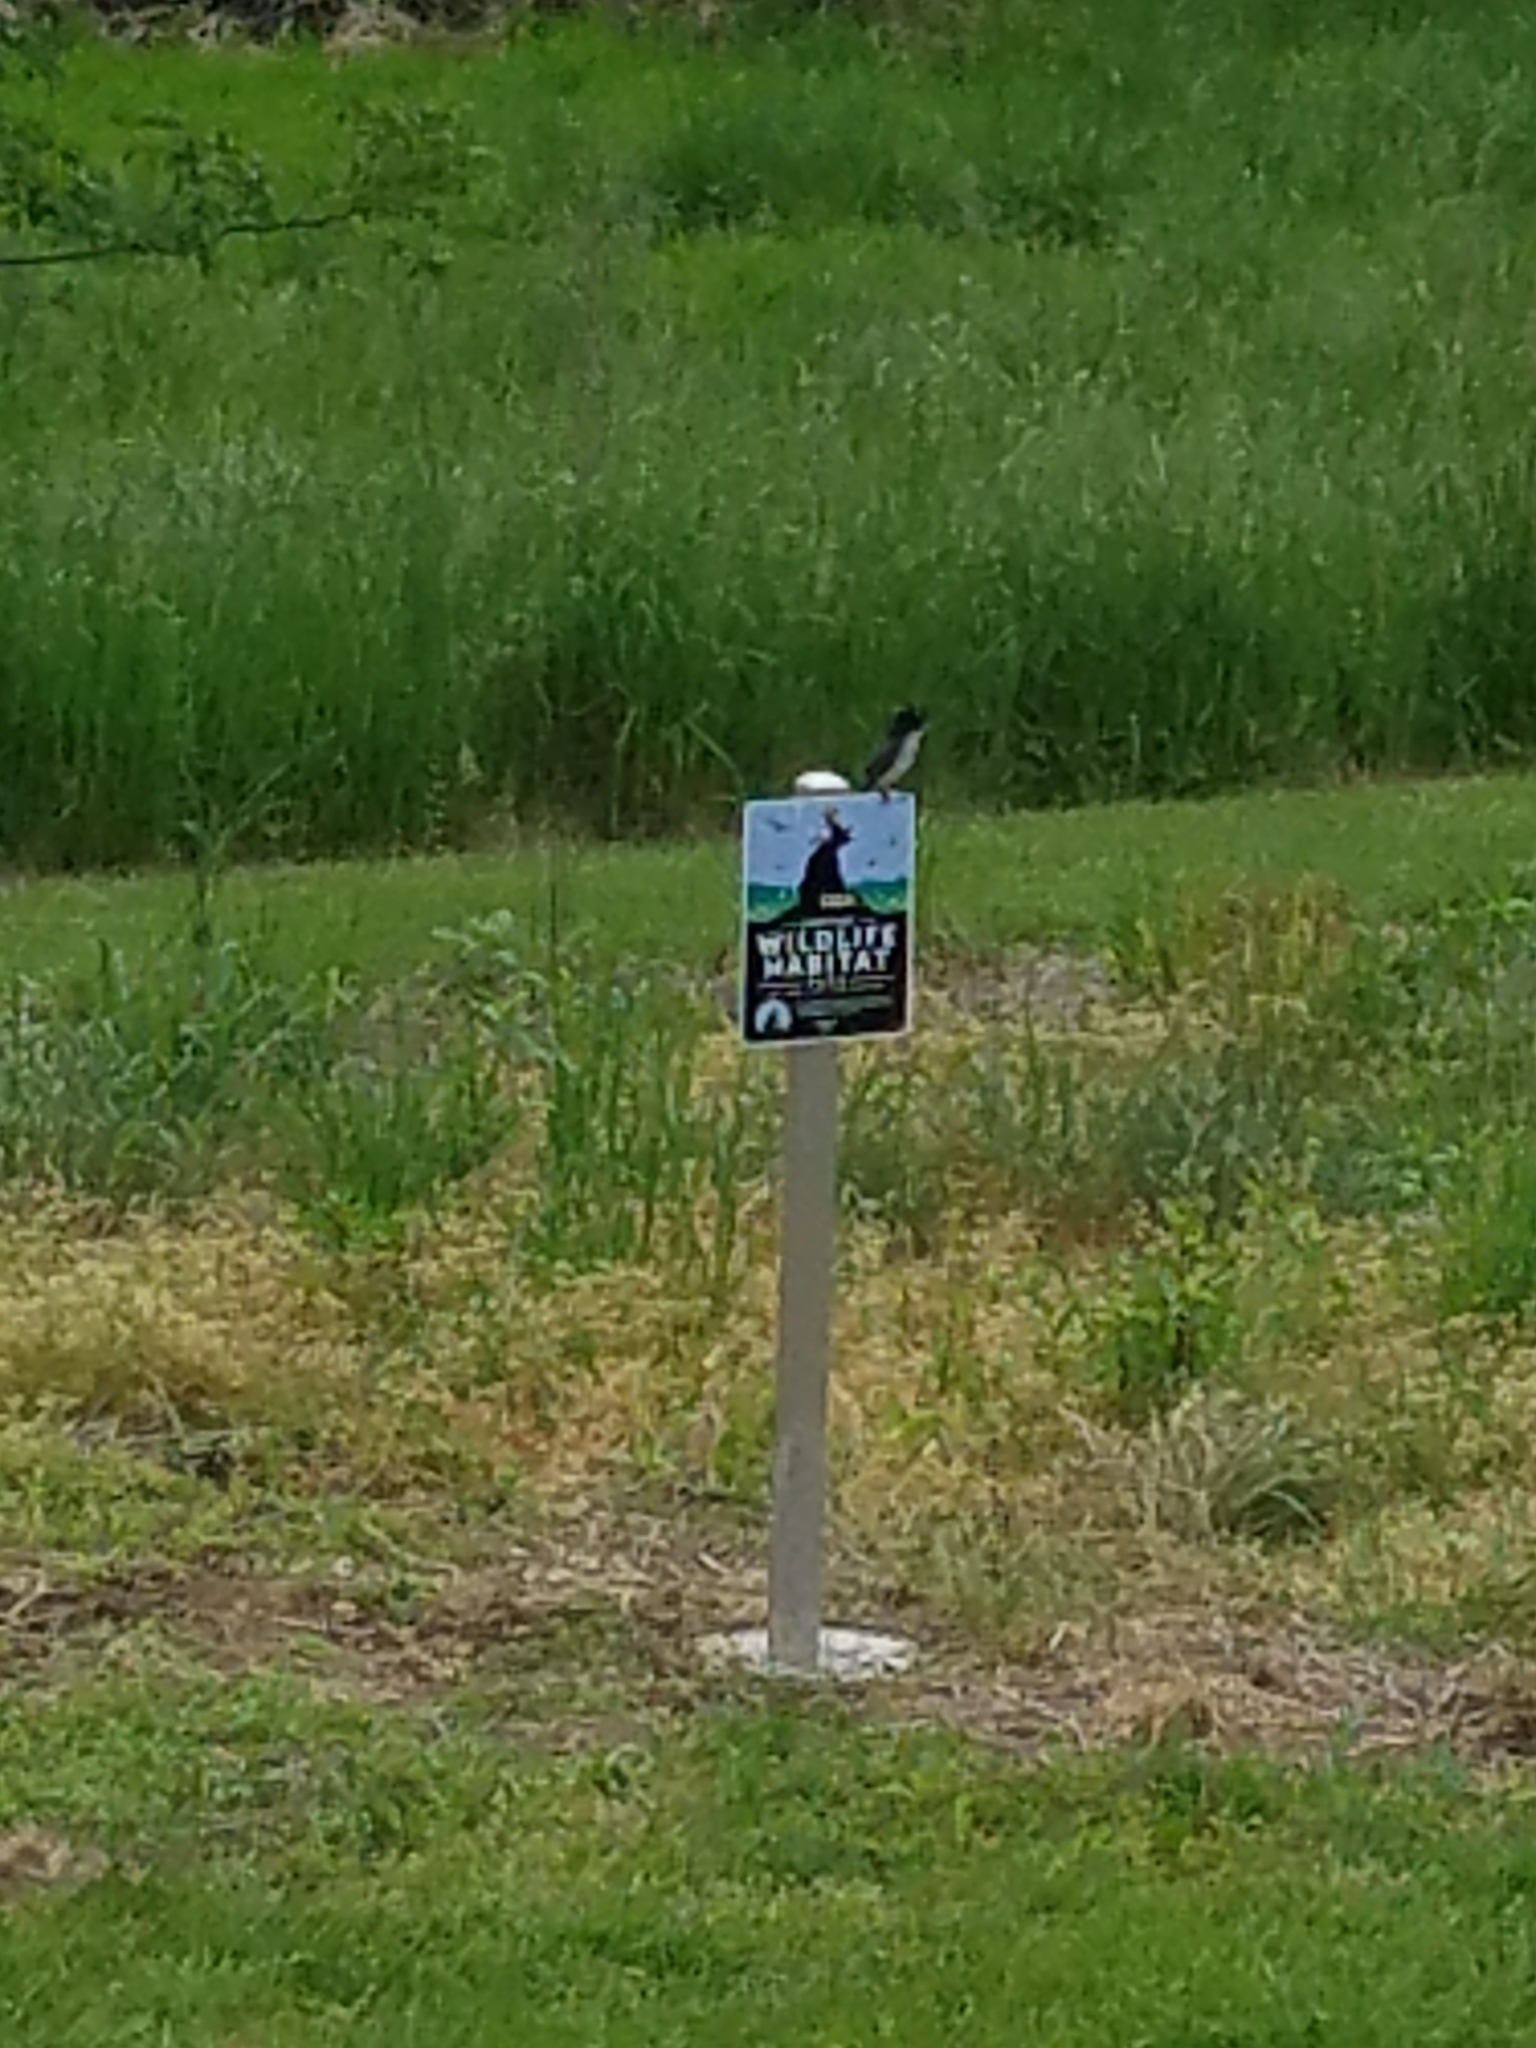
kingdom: Animalia
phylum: Chordata
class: Aves
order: Passeriformes
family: Tyrannidae
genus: Tyrannus
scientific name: Tyrannus tyrannus
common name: Eastern kingbird
